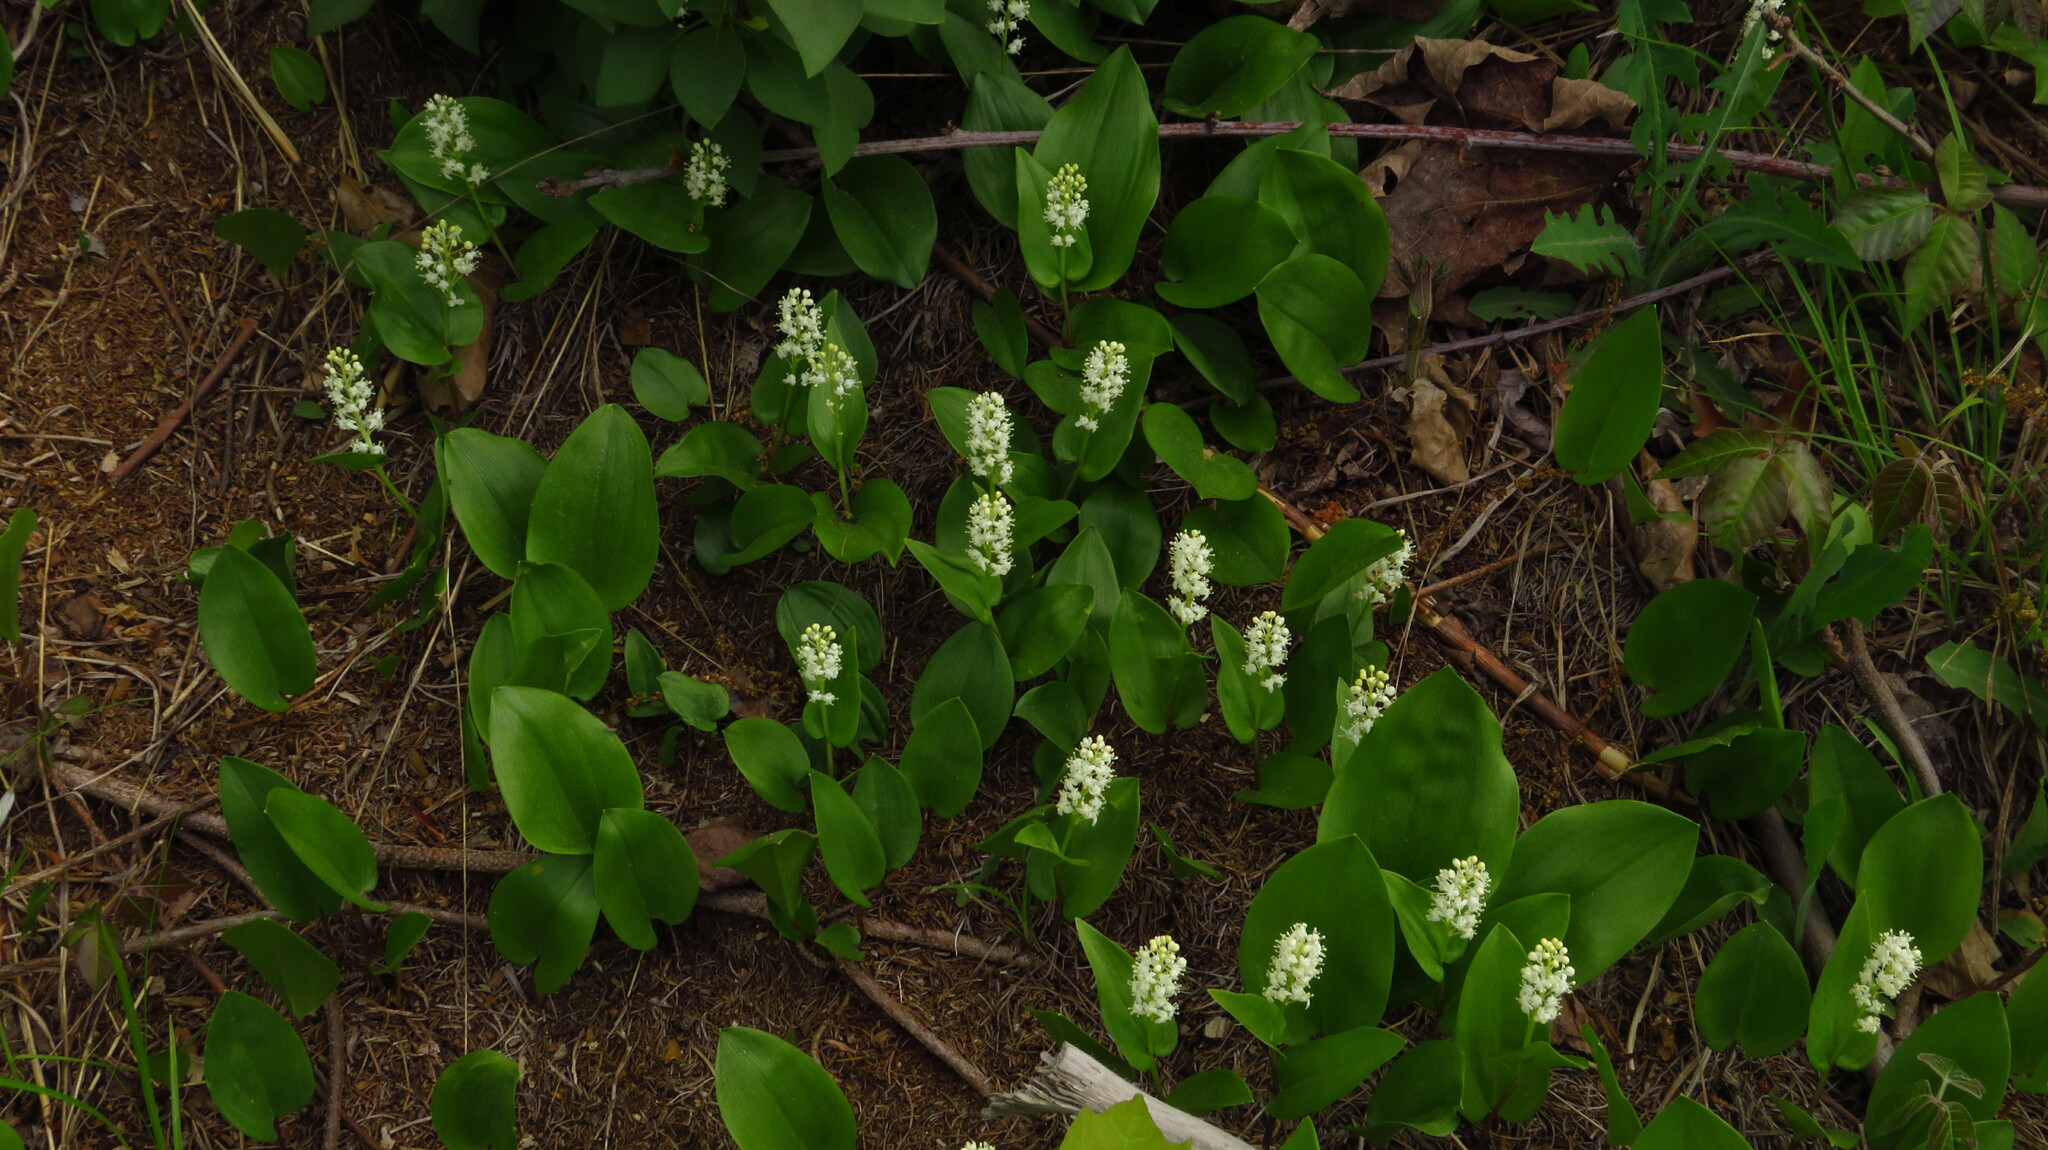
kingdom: Plantae
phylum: Tracheophyta
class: Liliopsida
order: Asparagales
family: Asparagaceae
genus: Maianthemum
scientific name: Maianthemum canadense
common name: False lily-of-the-valley
